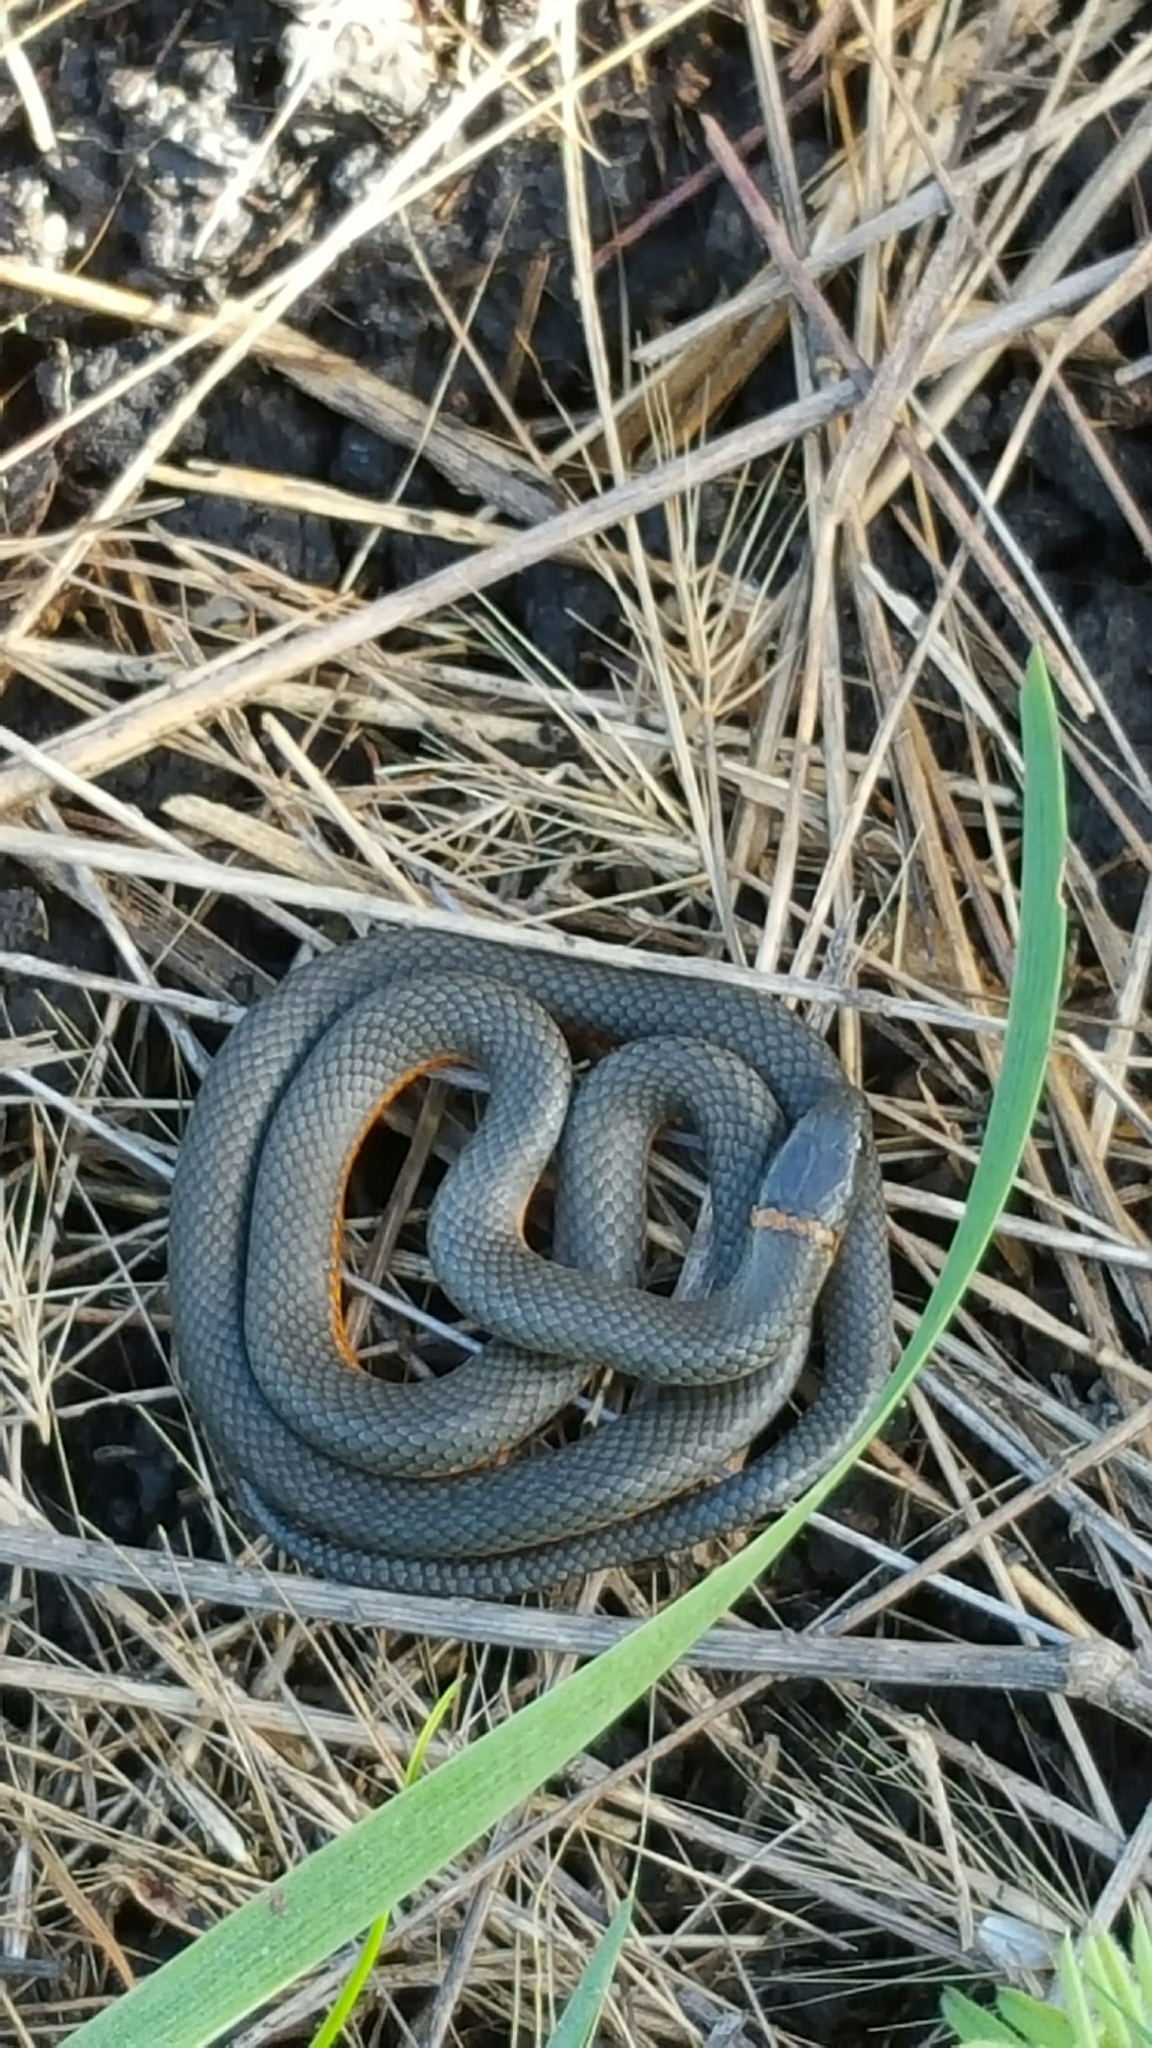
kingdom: Animalia
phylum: Chordata
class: Squamata
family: Colubridae
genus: Diadophis
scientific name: Diadophis punctatus
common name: Ringneck snake
